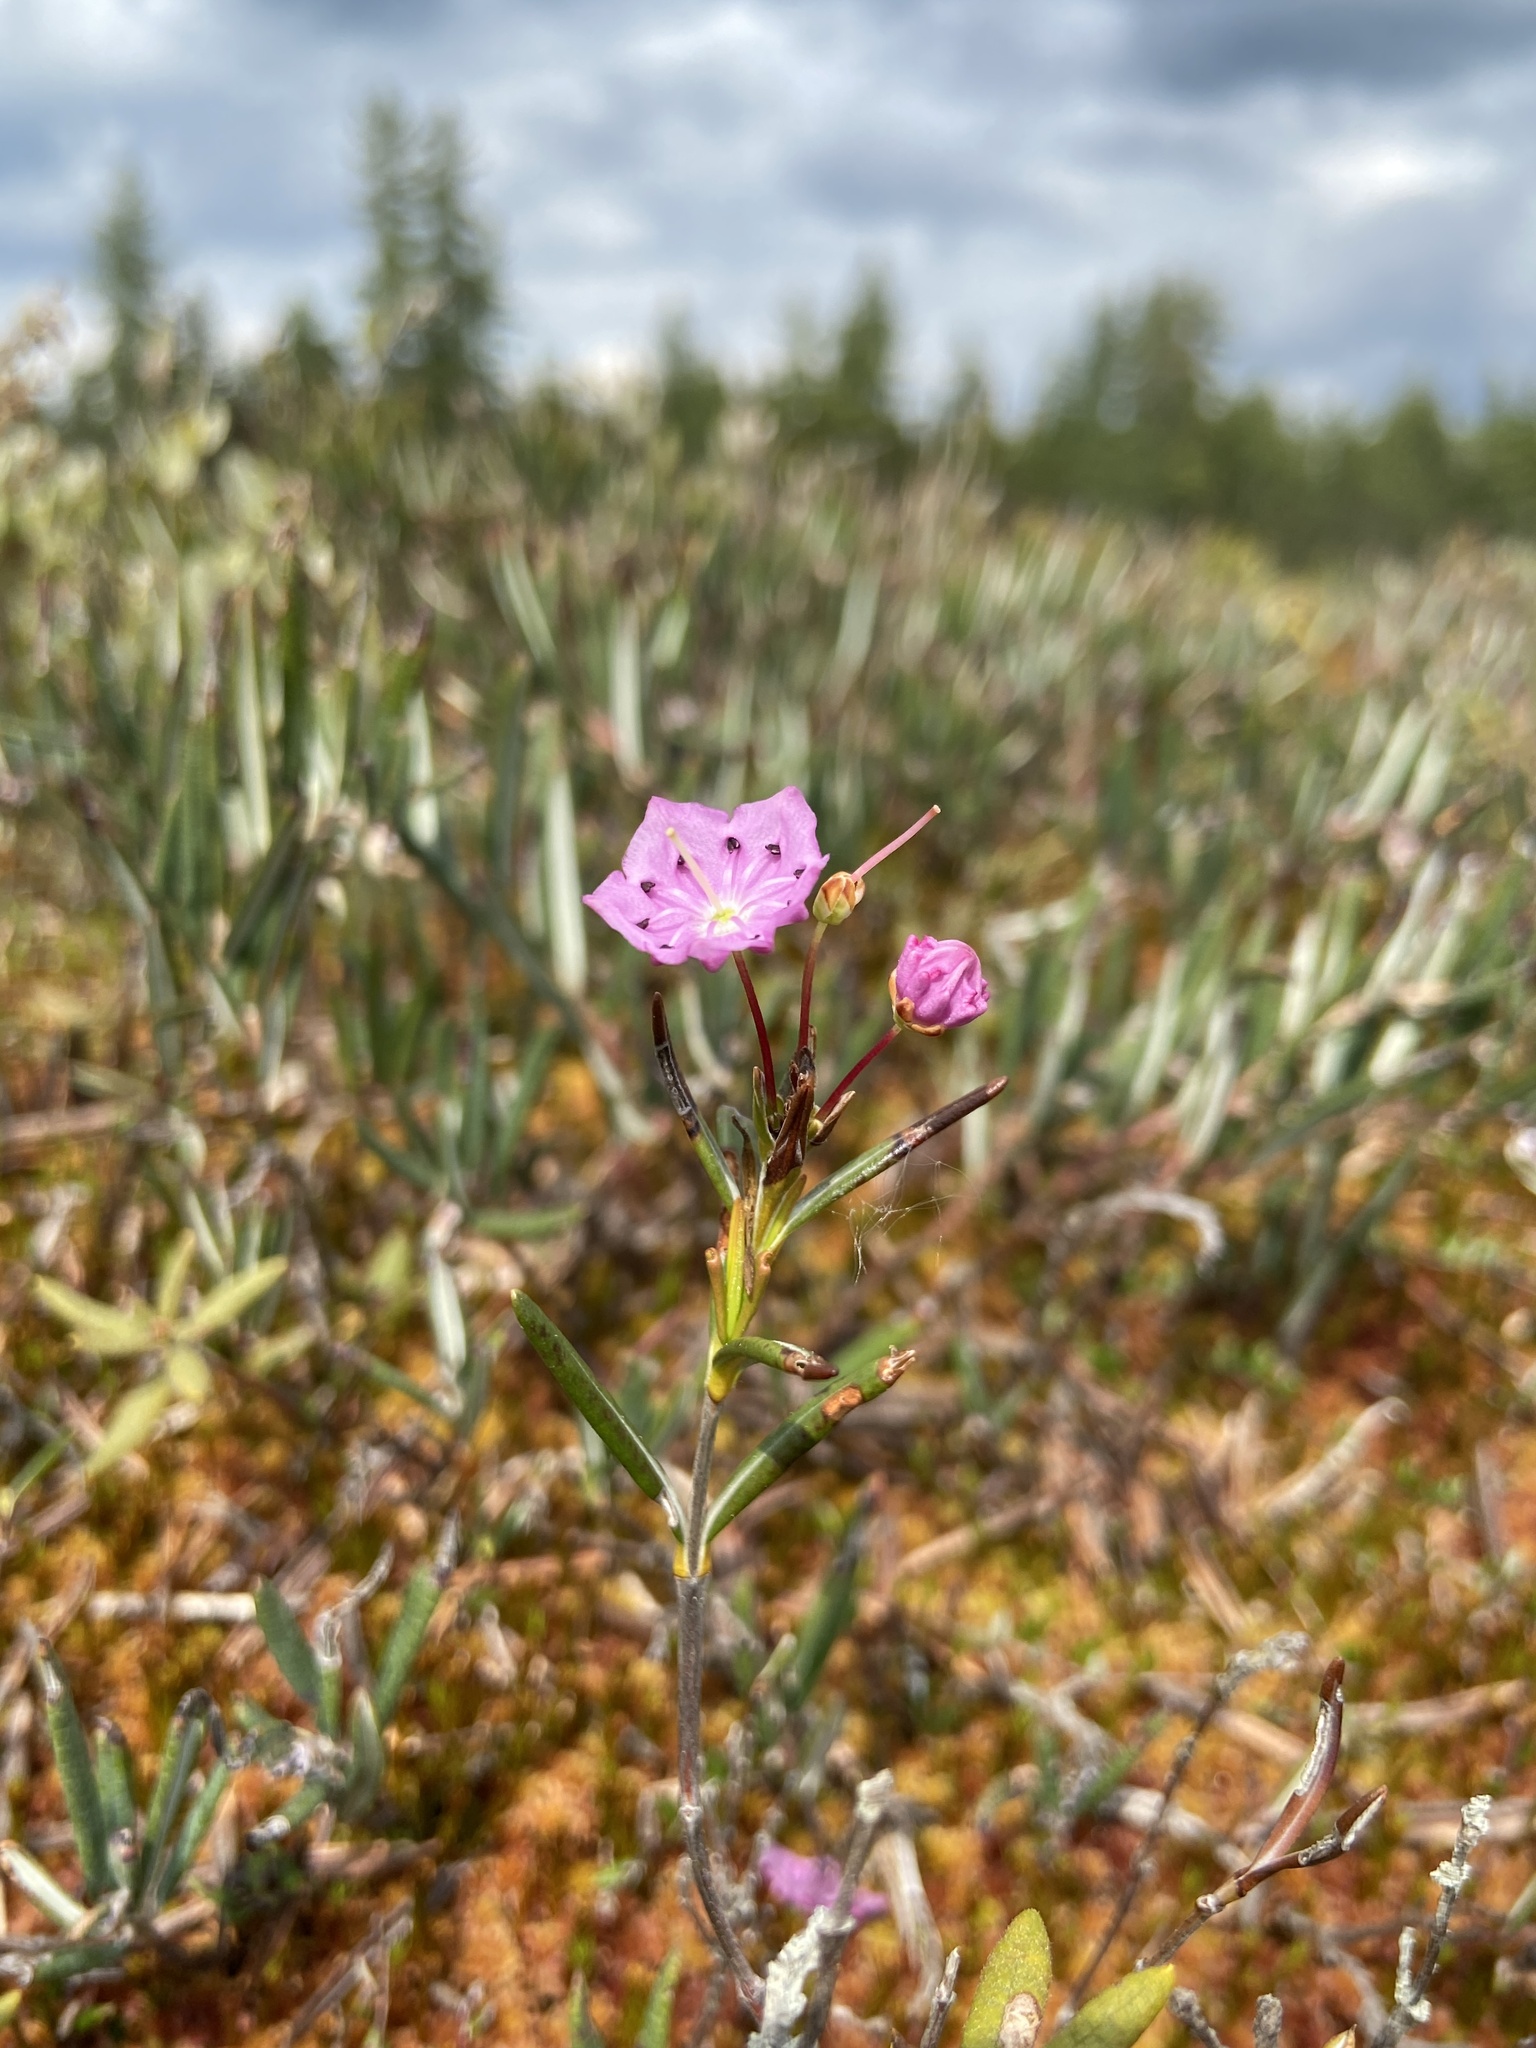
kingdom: Plantae
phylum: Tracheophyta
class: Magnoliopsida
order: Ericales
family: Ericaceae
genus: Kalmia
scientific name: Kalmia polifolia
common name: Bog-laurel
